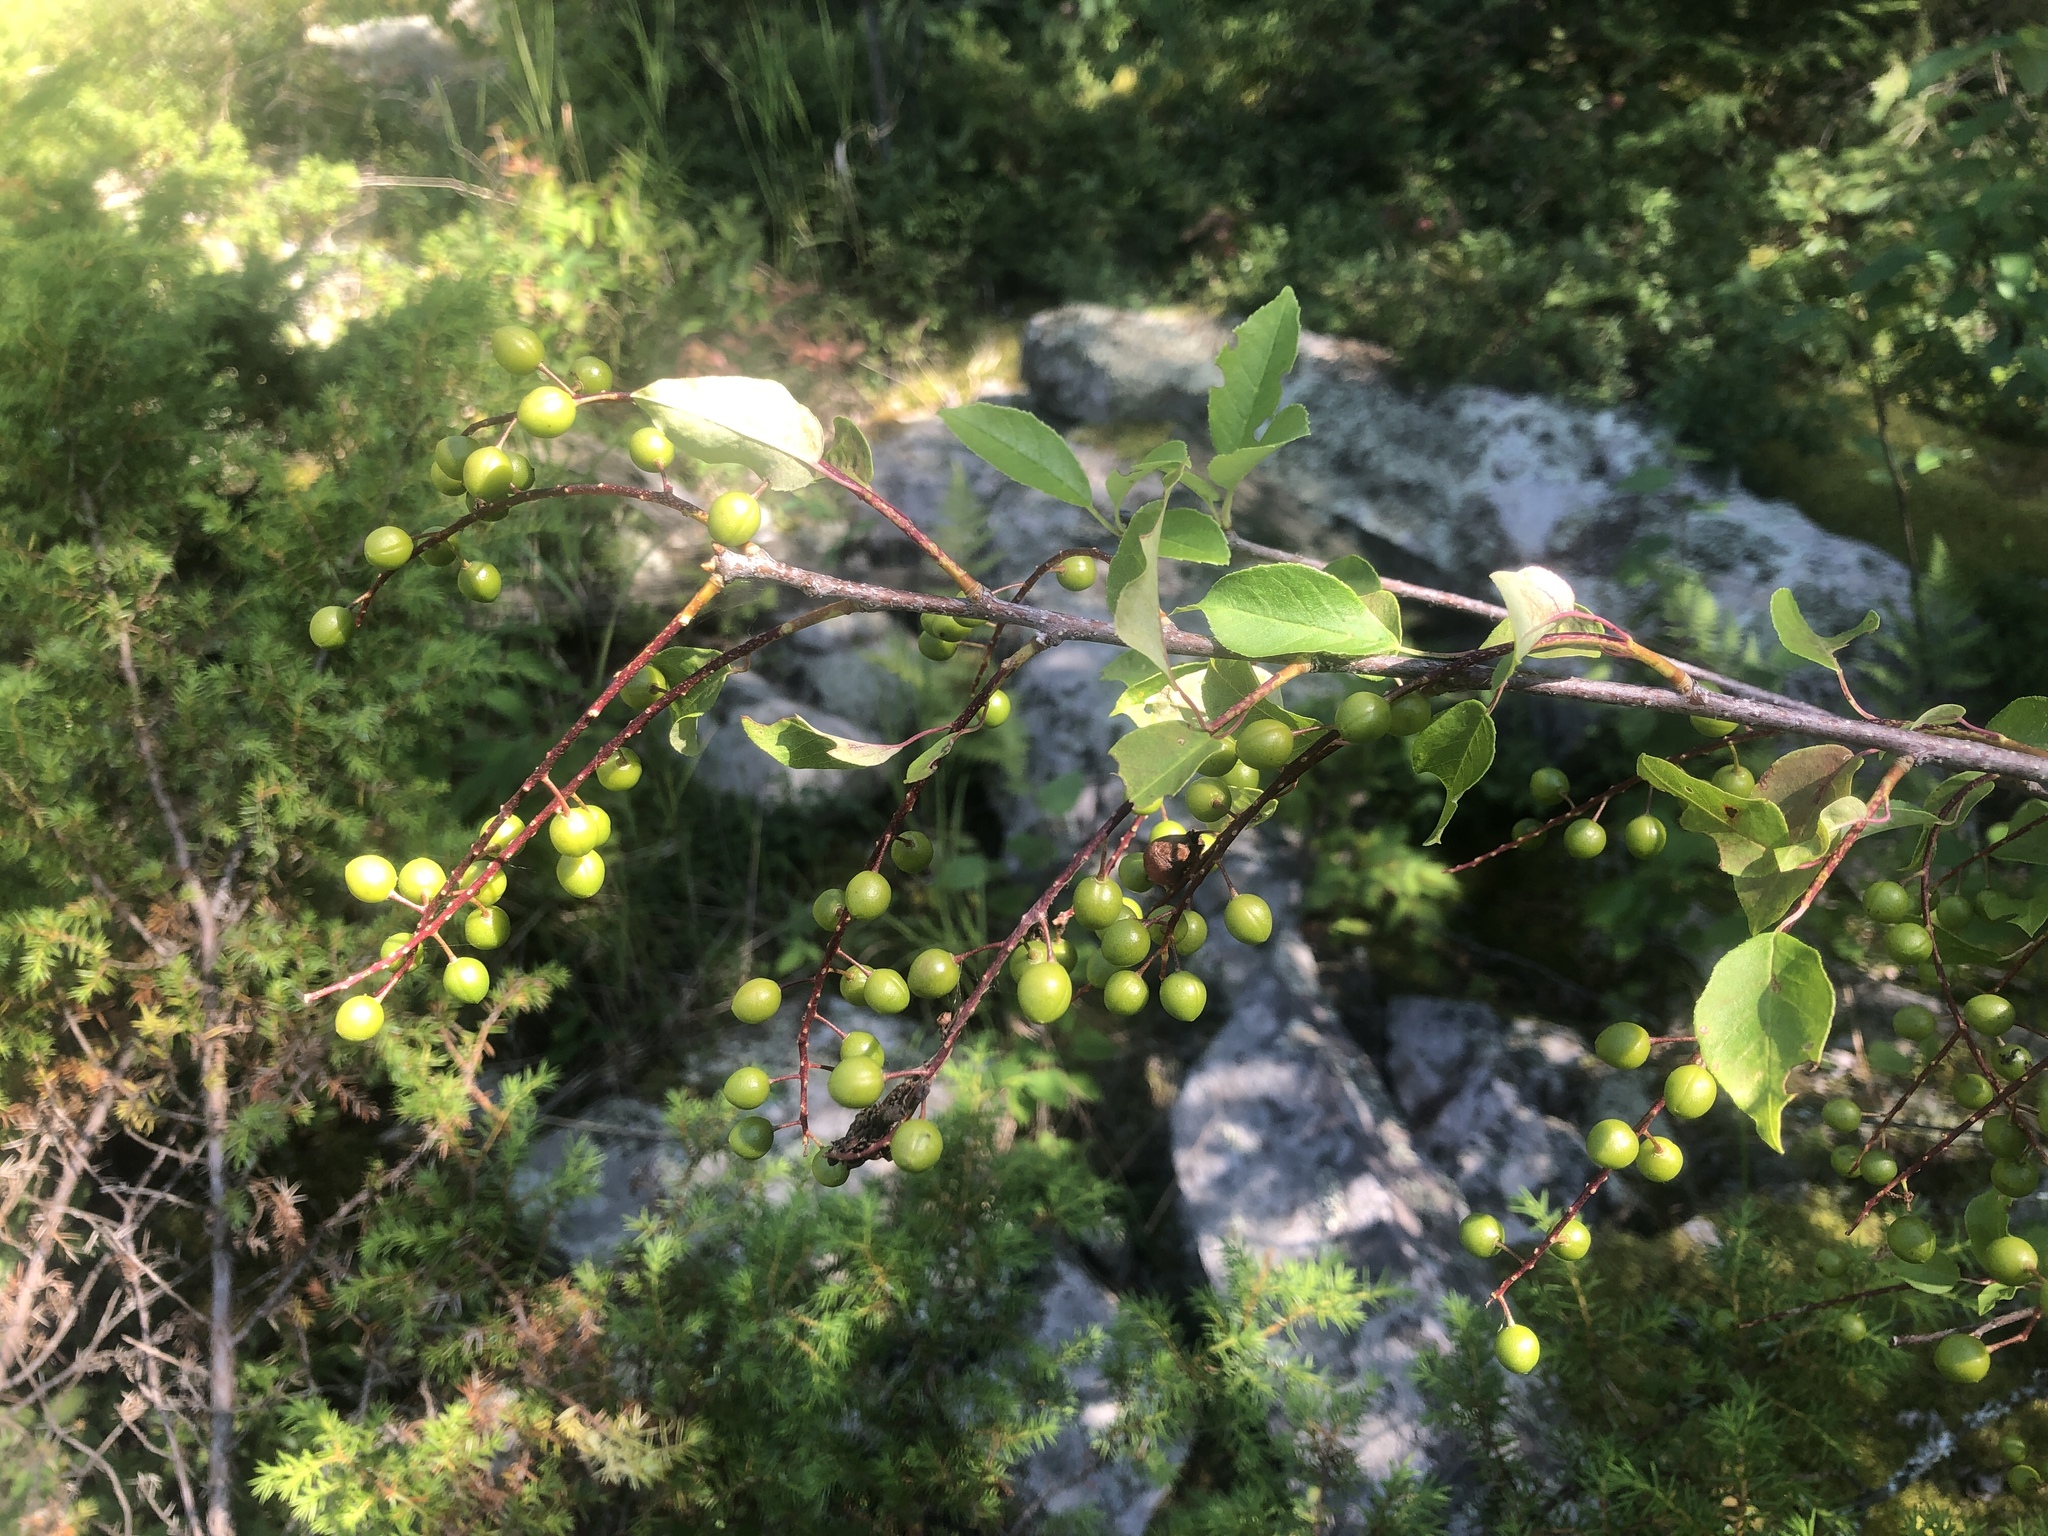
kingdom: Plantae
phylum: Tracheophyta
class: Magnoliopsida
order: Rosales
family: Rosaceae
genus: Prunus
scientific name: Prunus virginiana
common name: Chokecherry
